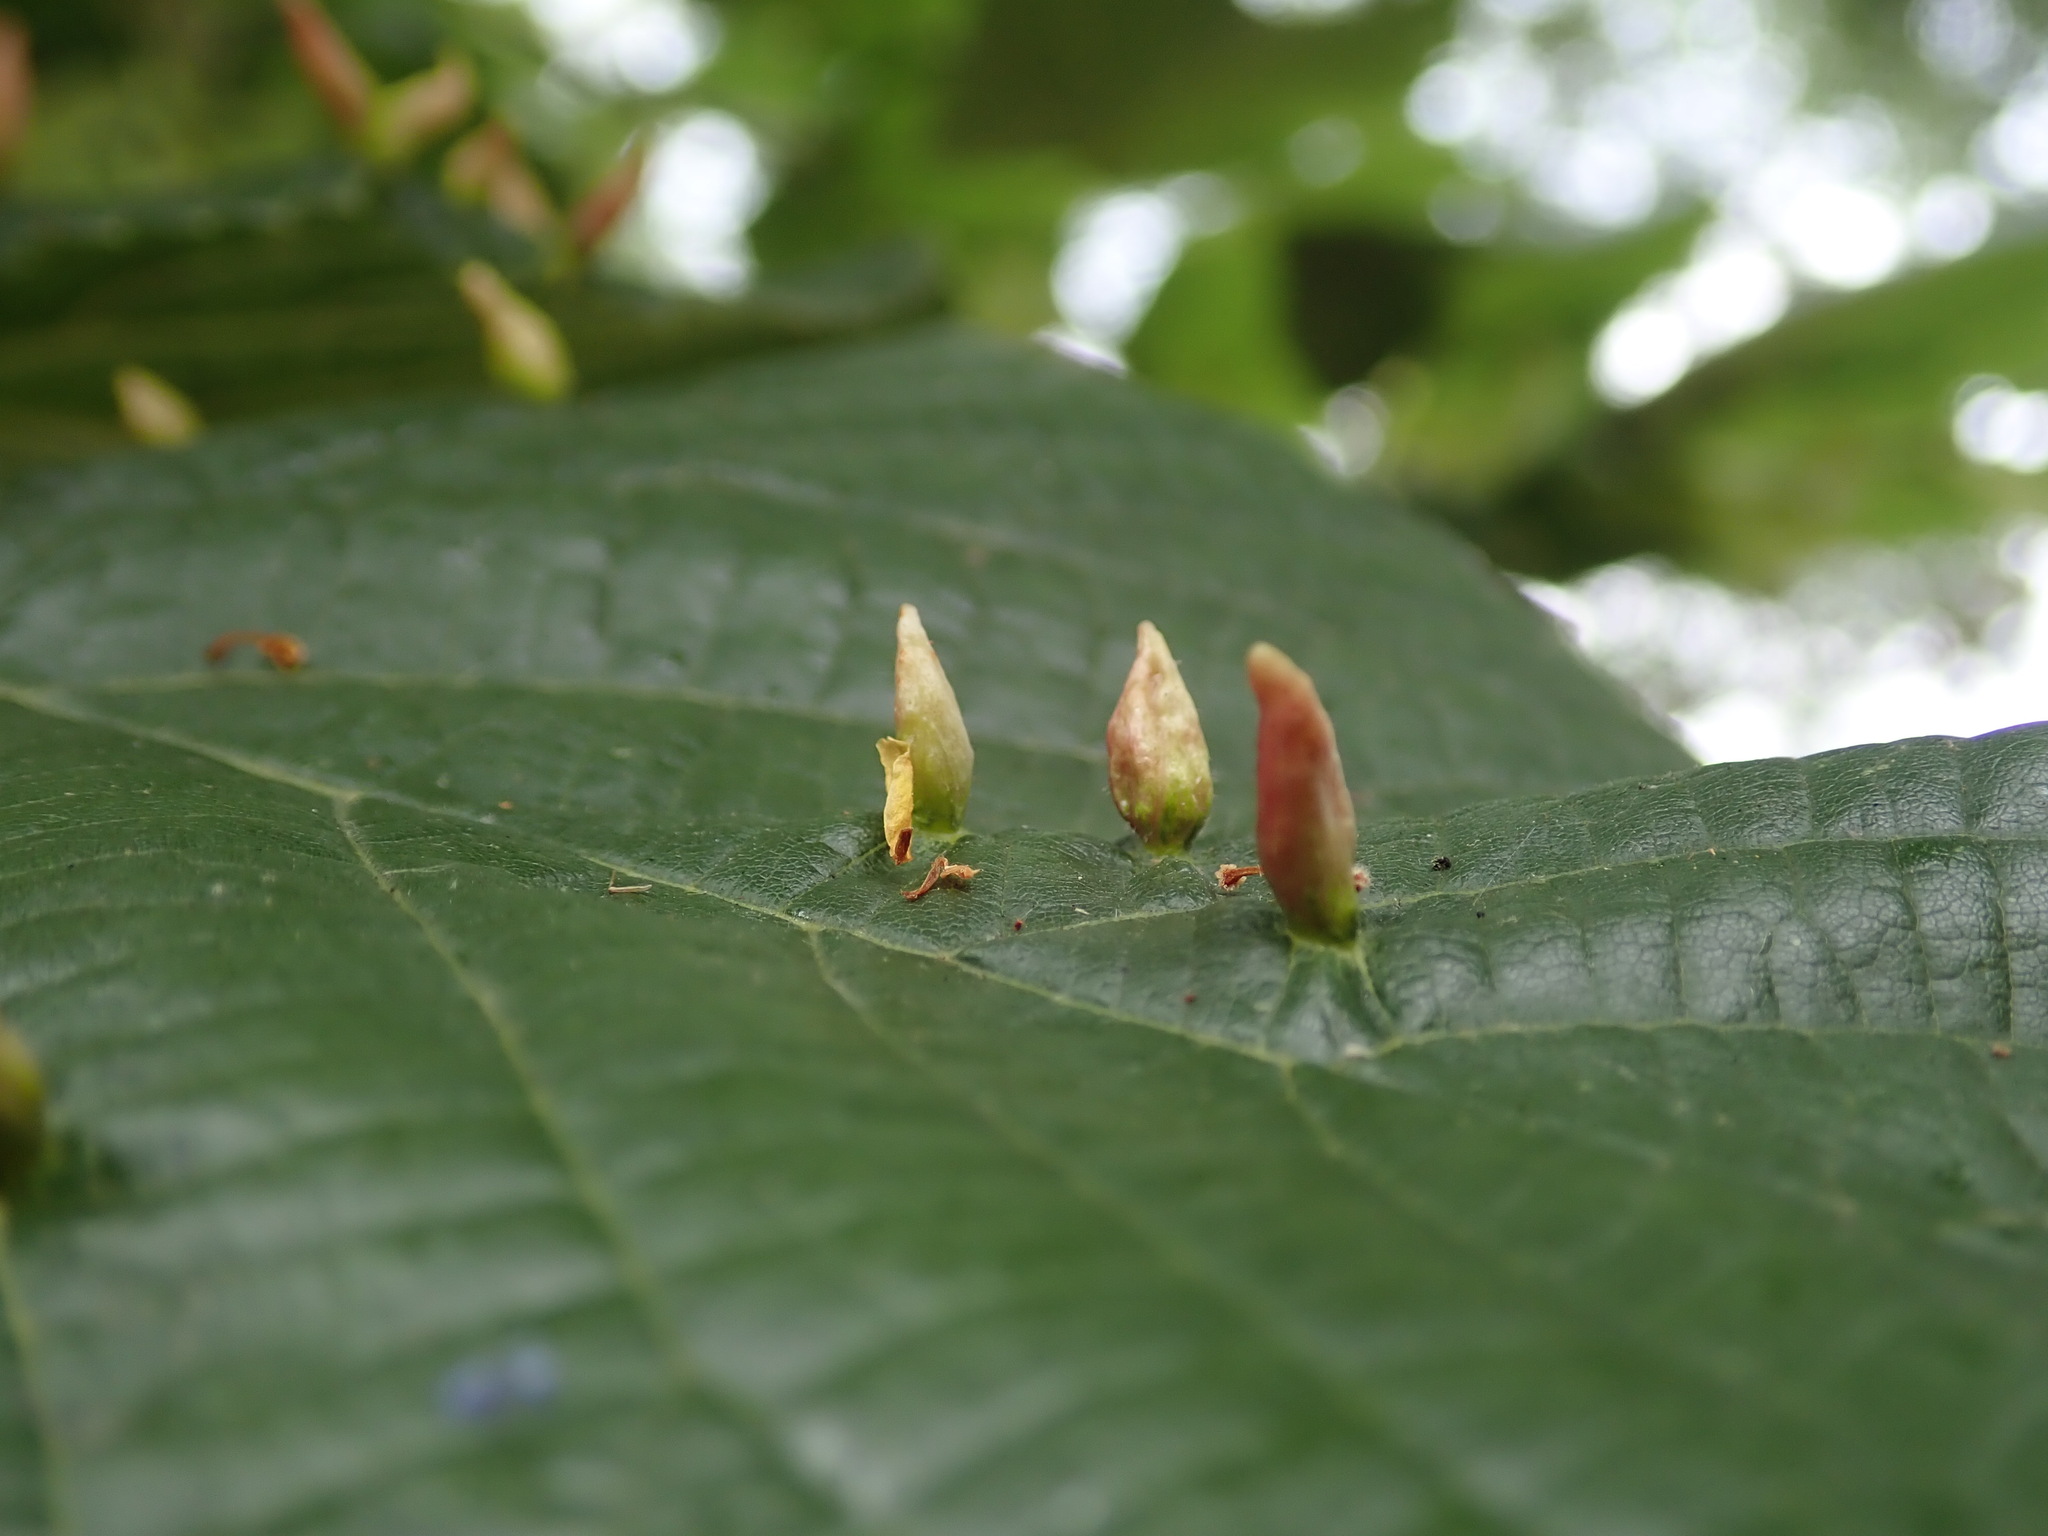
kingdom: Animalia
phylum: Arthropoda
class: Arachnida
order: Trombidiformes
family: Eriophyidae
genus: Eriophyes
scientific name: Eriophyes tiliae
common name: Red nail gall mite
